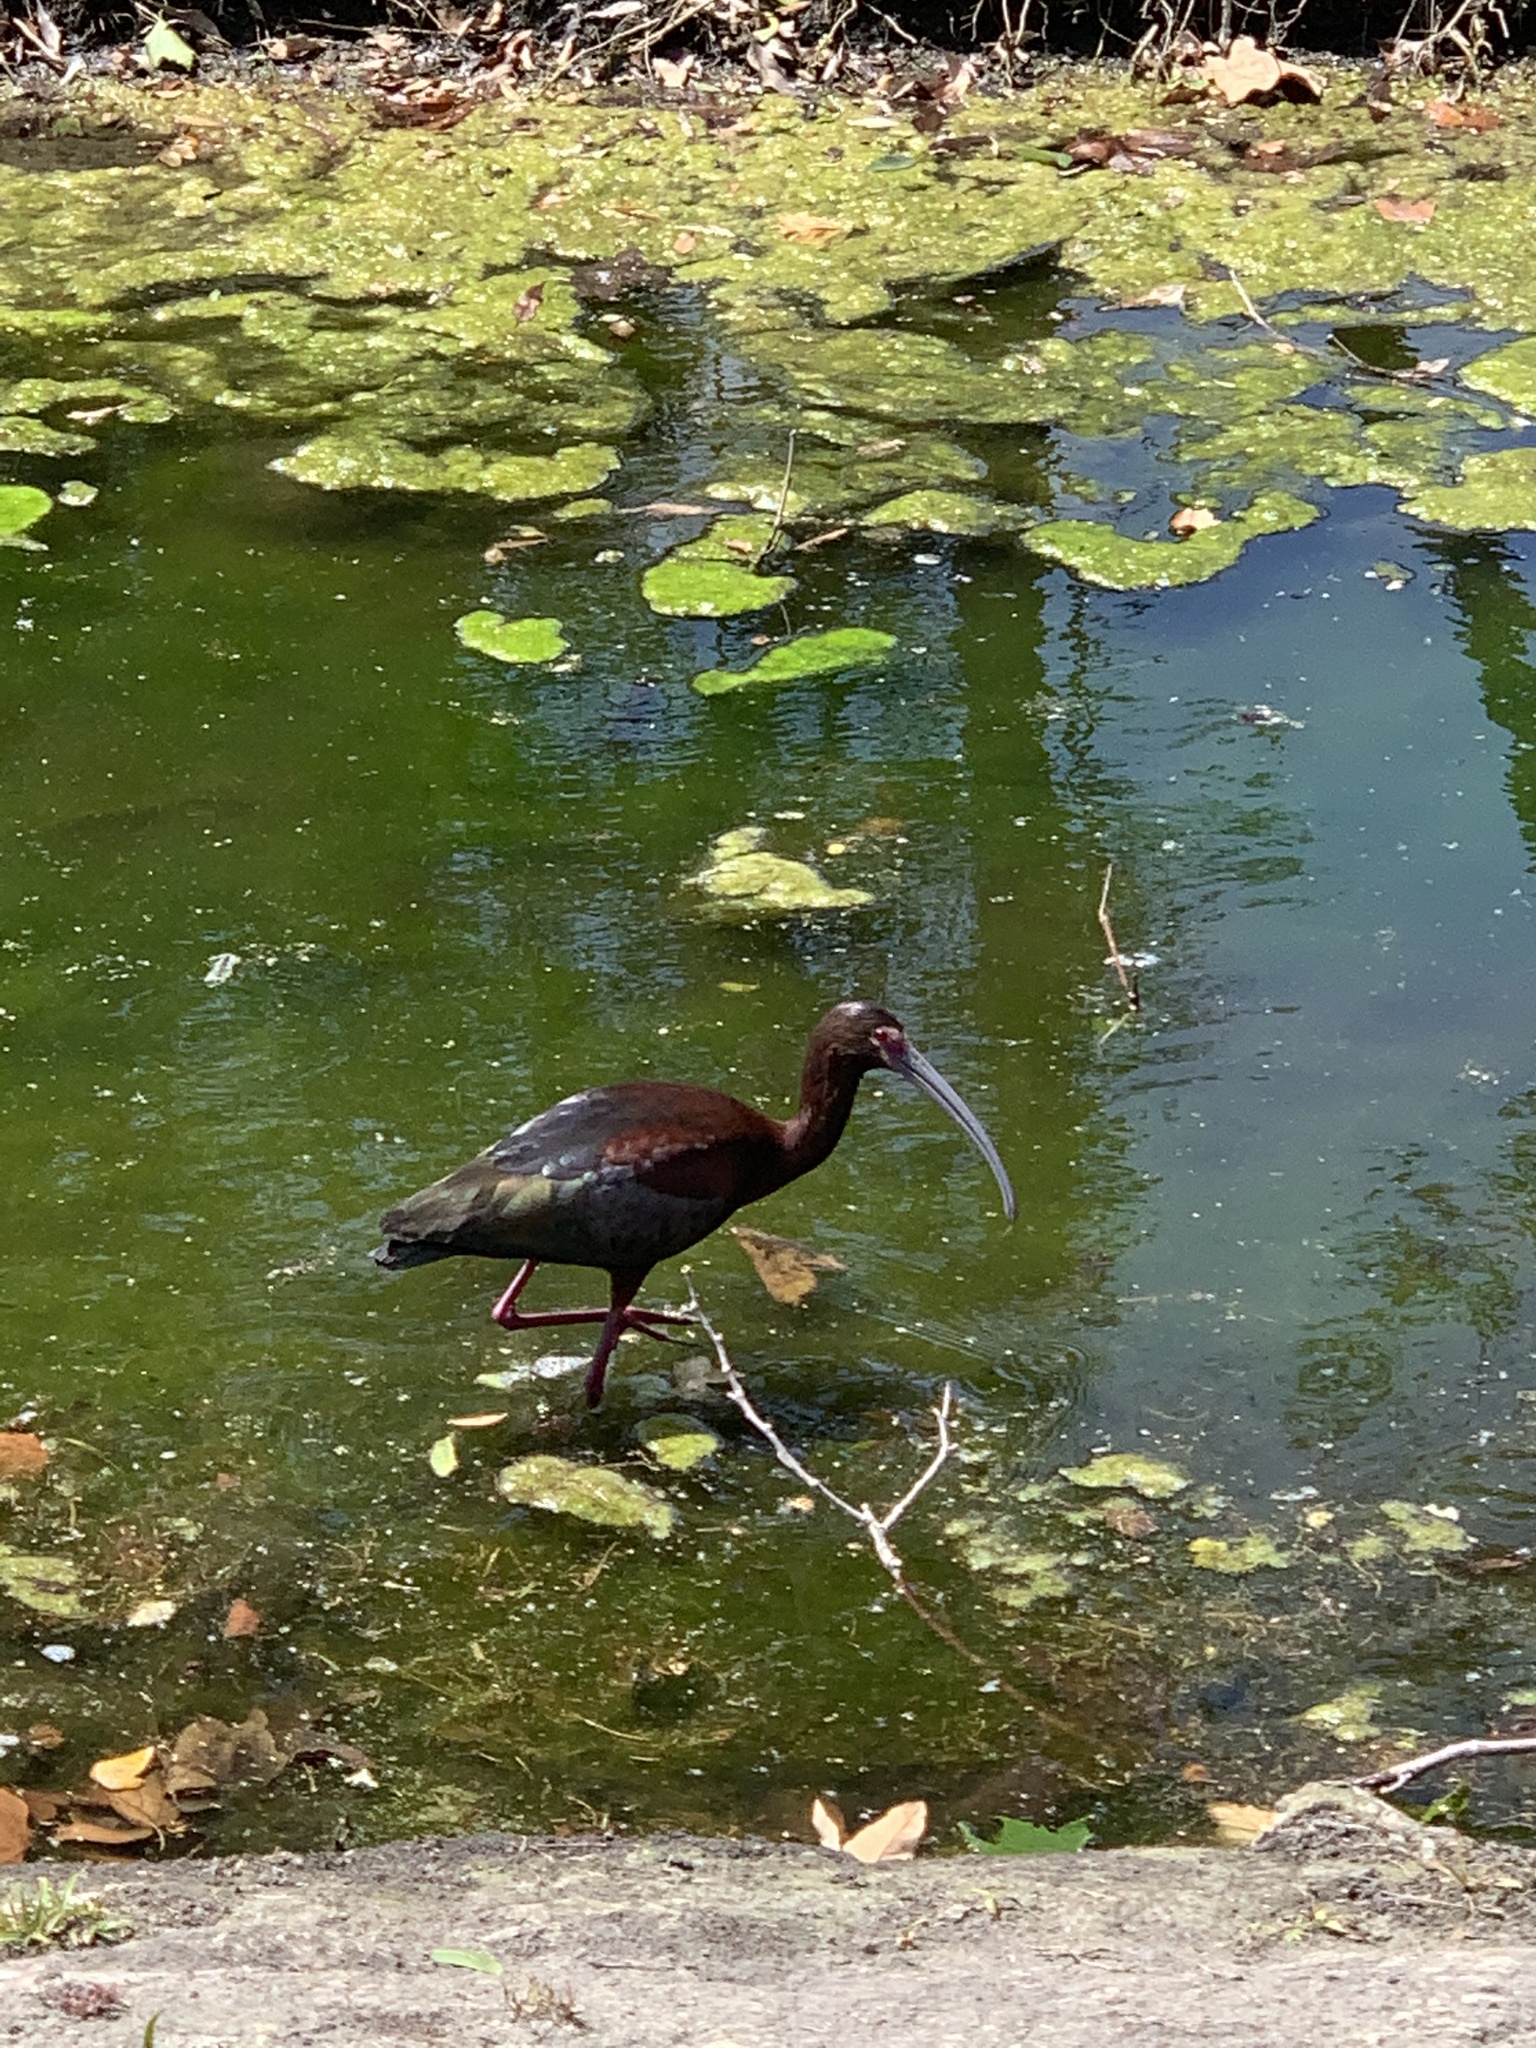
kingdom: Animalia
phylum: Chordata
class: Aves
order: Pelecaniformes
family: Threskiornithidae
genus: Plegadis
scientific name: Plegadis chihi
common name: White-faced ibis
